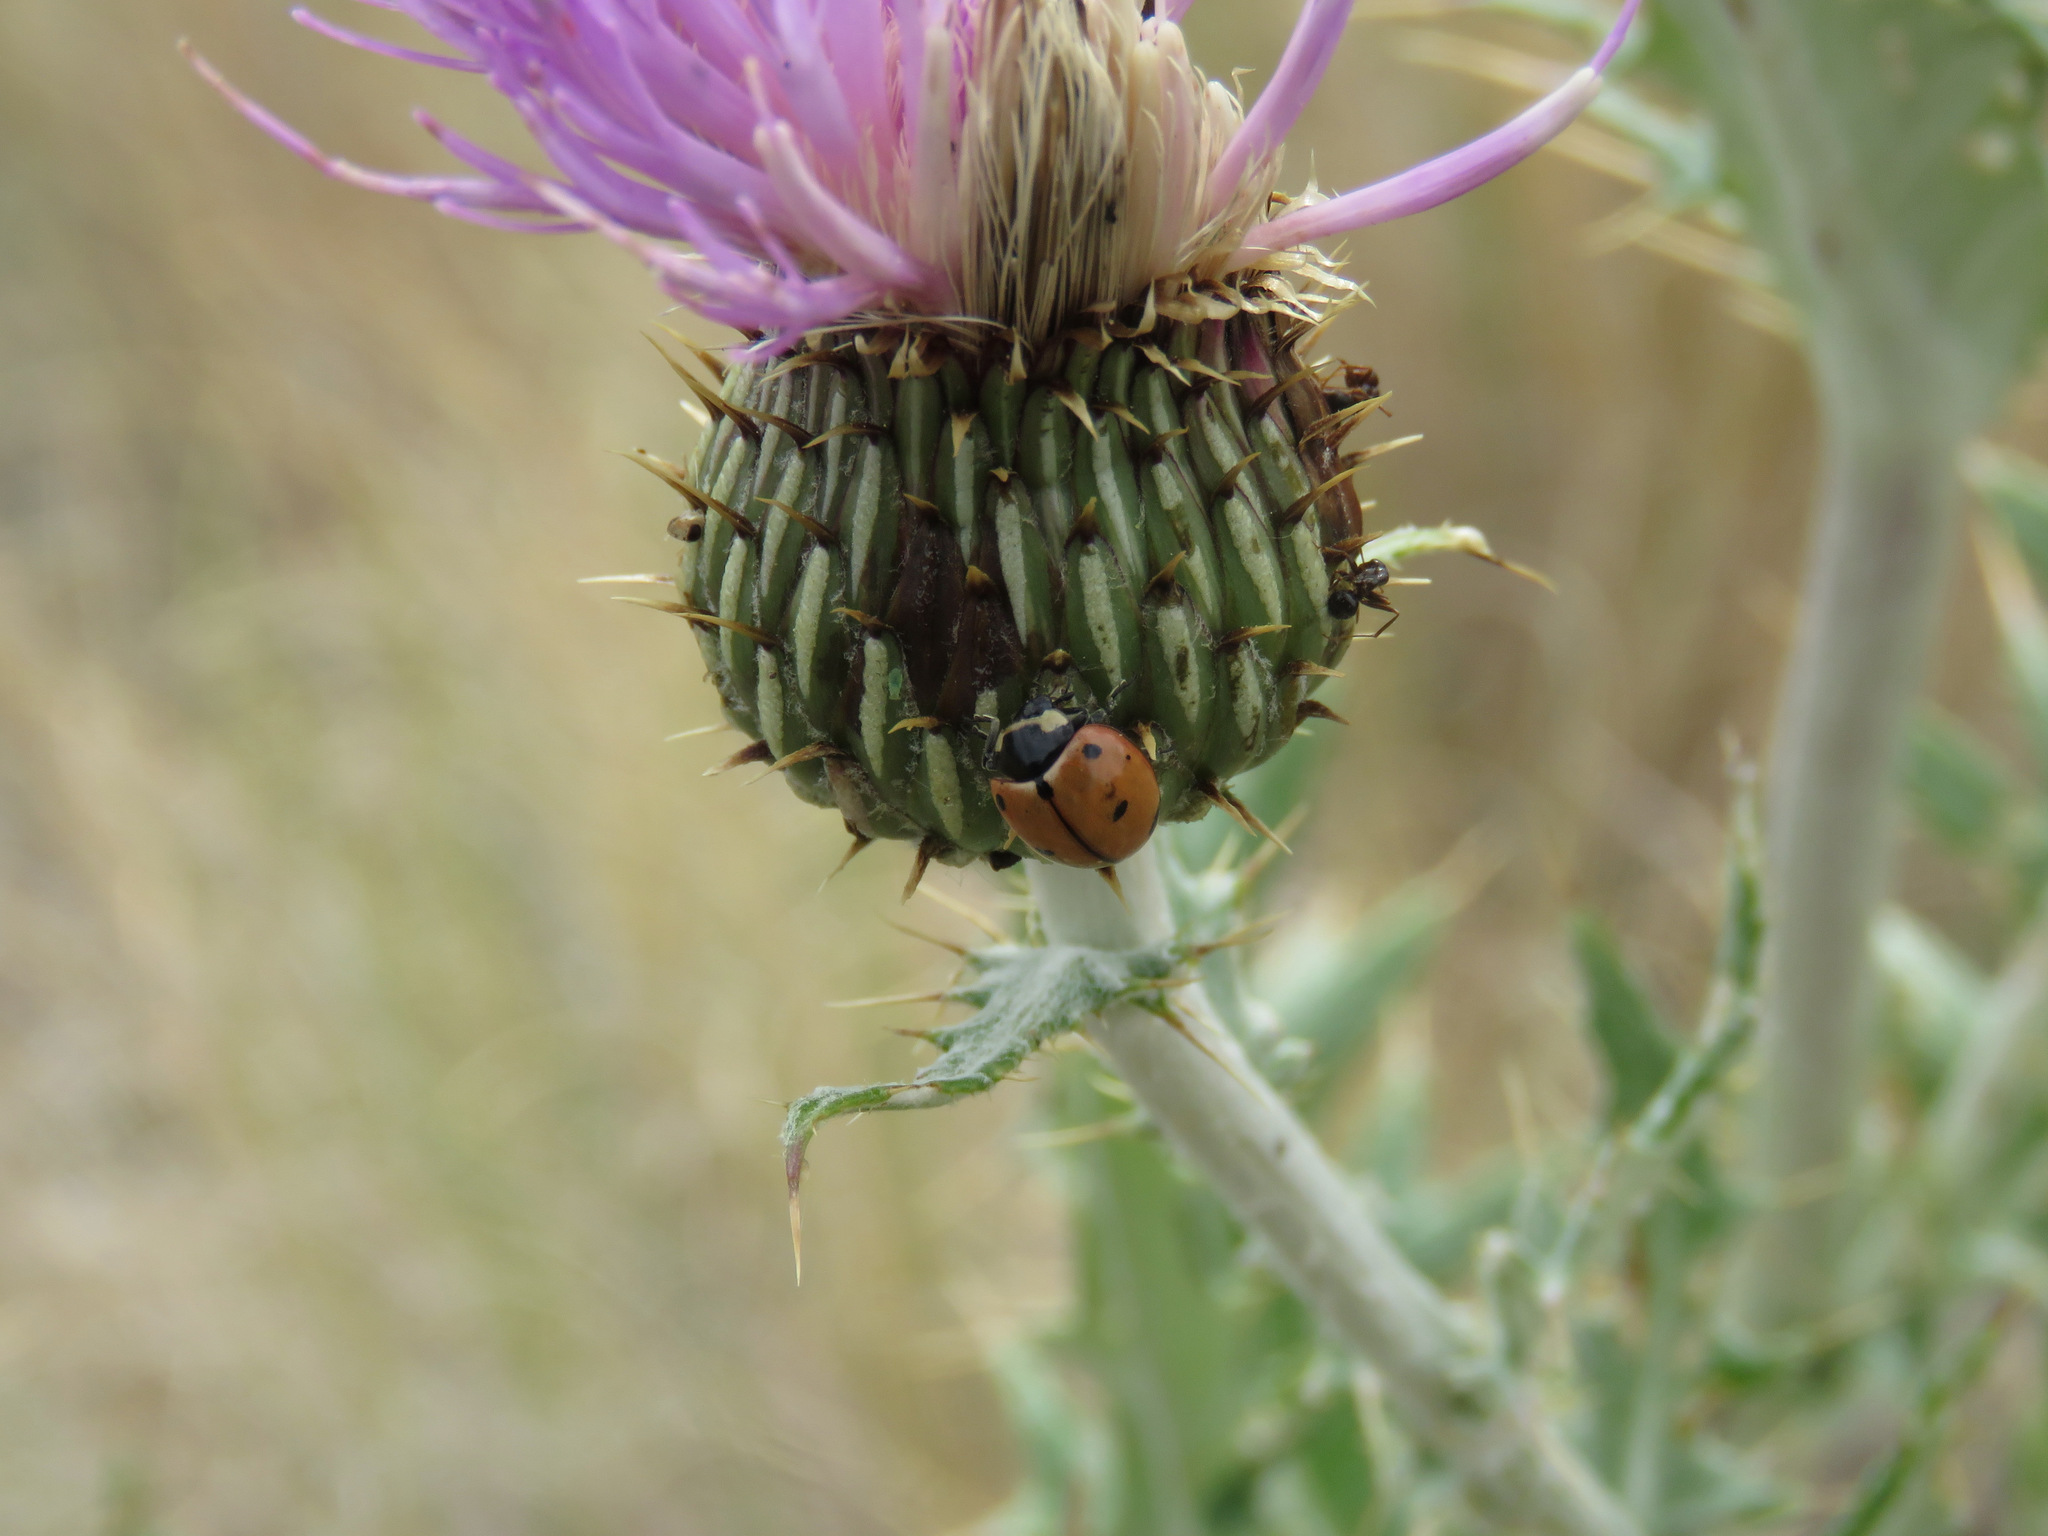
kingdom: Animalia
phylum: Arthropoda
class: Insecta
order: Coleoptera
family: Coccinellidae
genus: Coccinella
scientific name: Coccinella novemnotata
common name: Nine-spotted lady beetle
